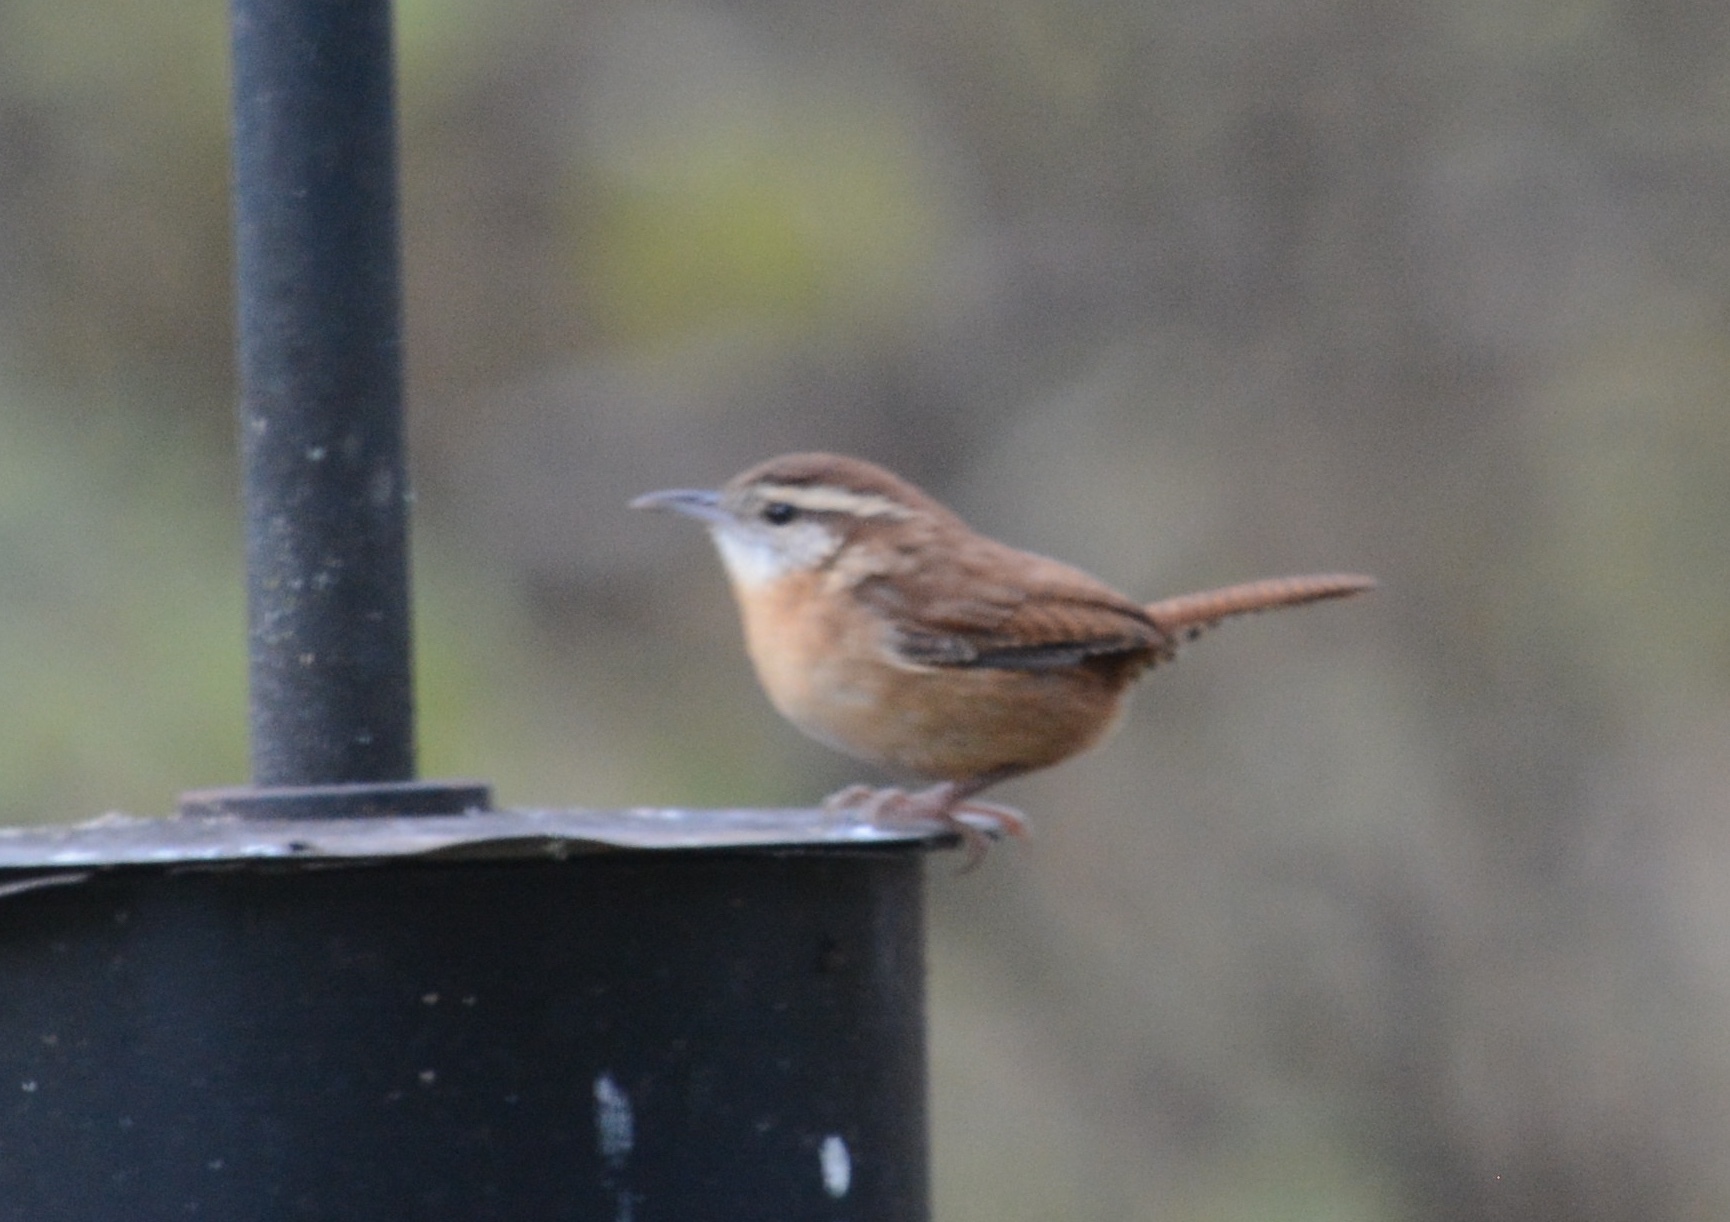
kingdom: Animalia
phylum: Chordata
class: Aves
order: Passeriformes
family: Troglodytidae
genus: Thryothorus
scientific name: Thryothorus ludovicianus
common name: Carolina wren
